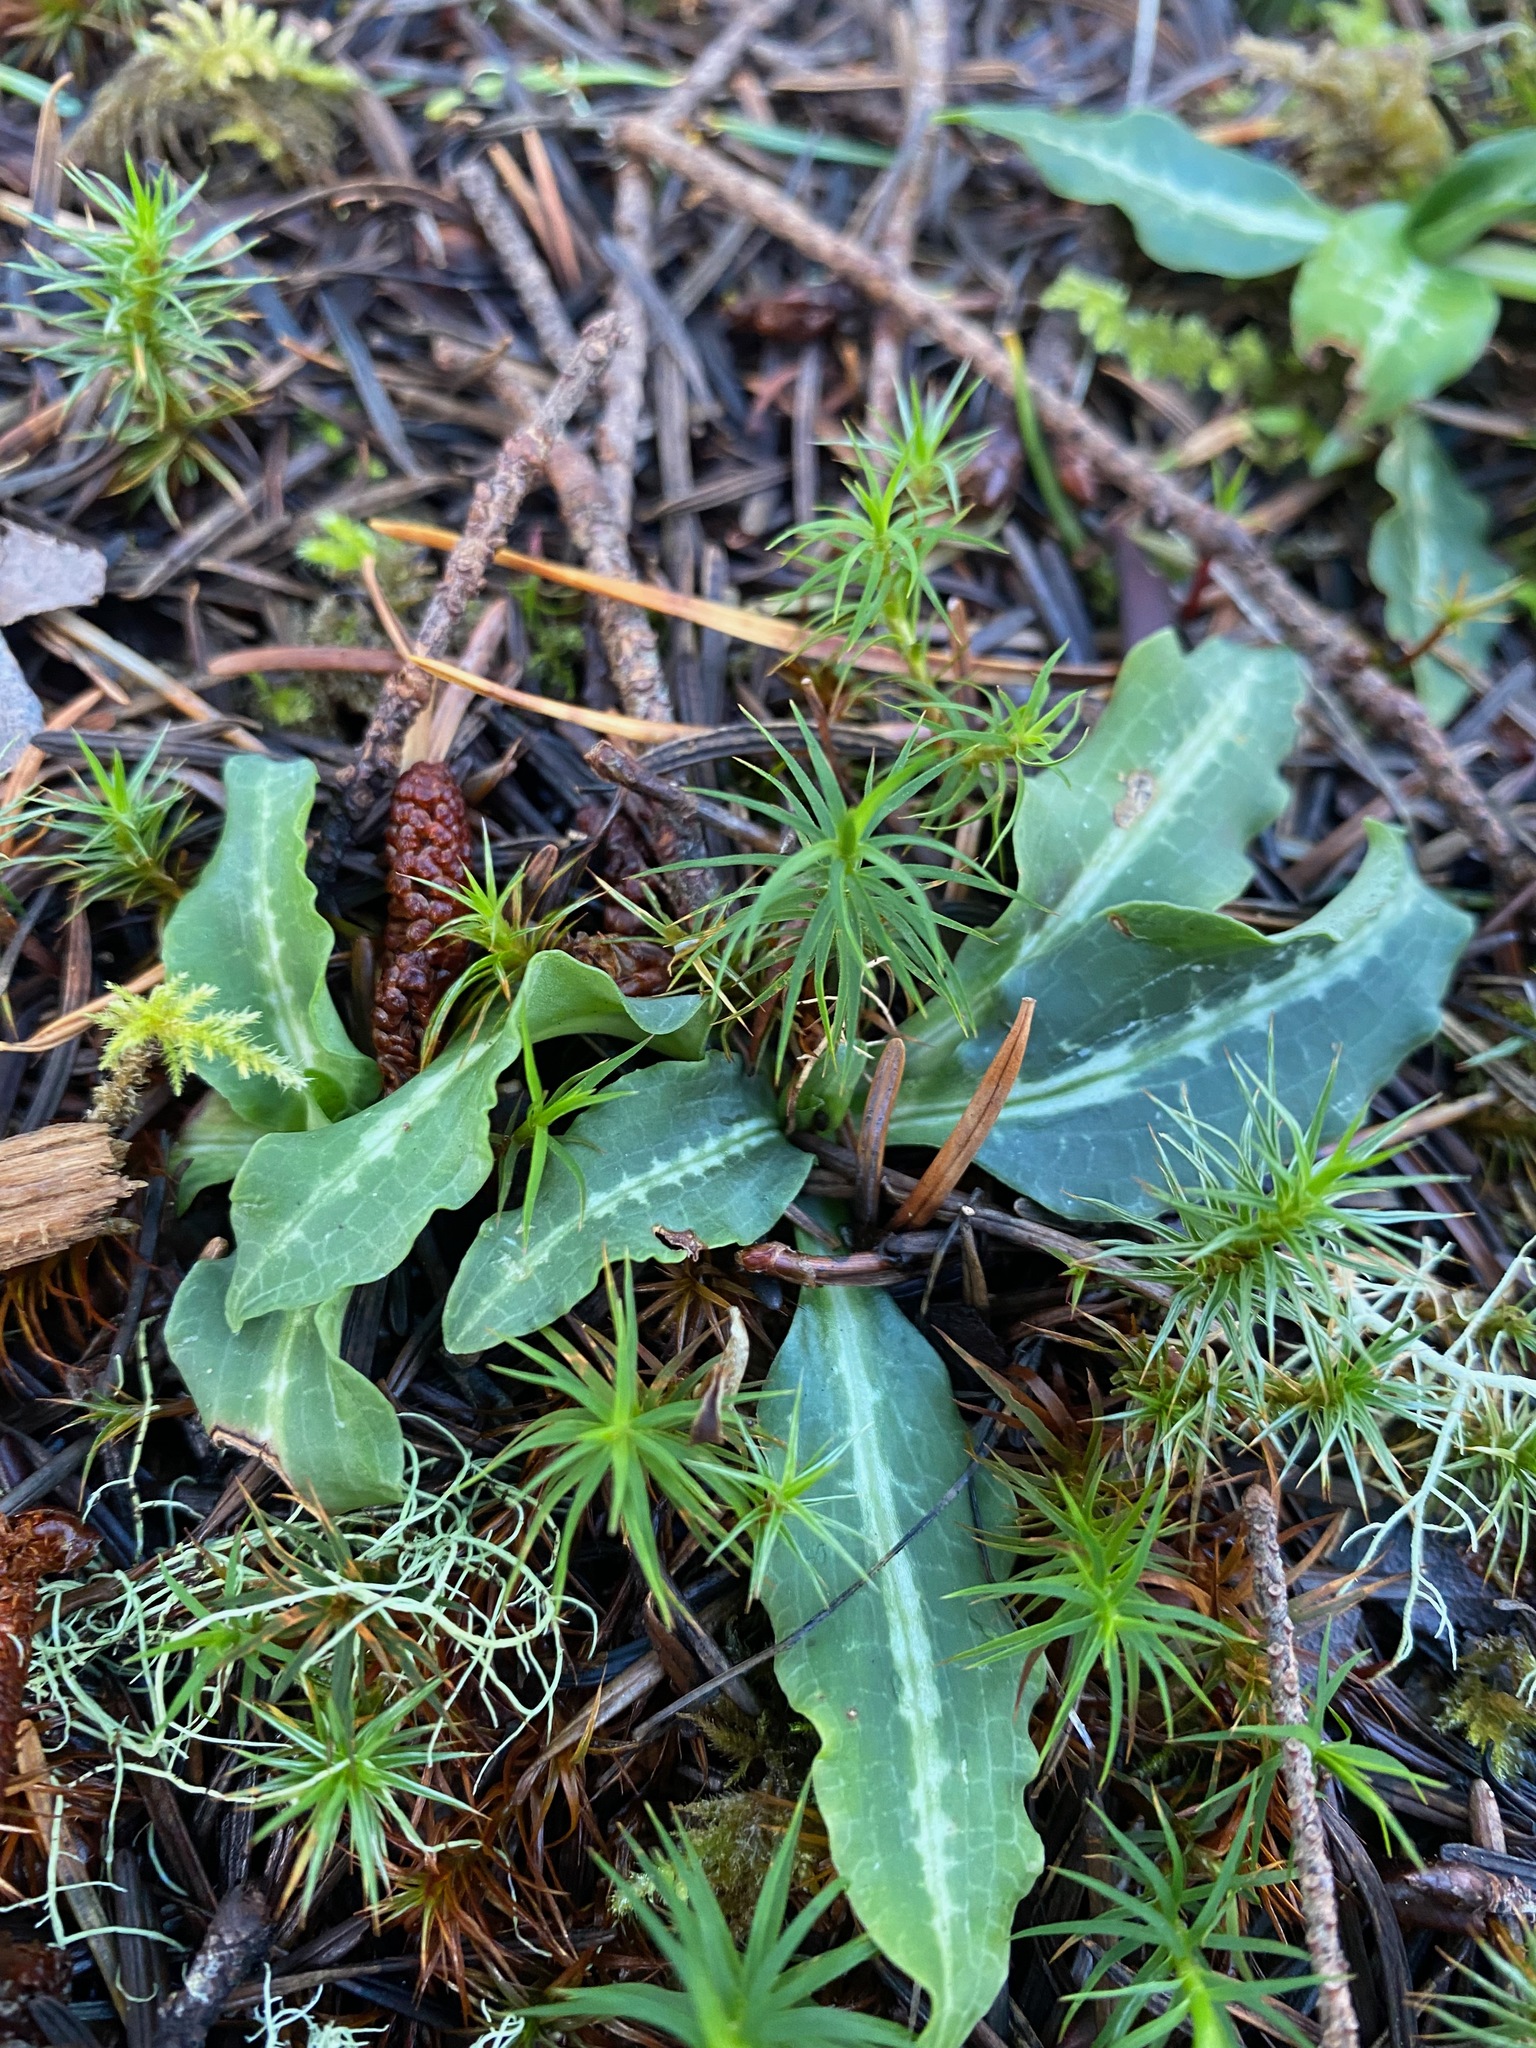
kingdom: Plantae
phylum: Tracheophyta
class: Liliopsida
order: Asparagales
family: Orchidaceae
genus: Goodyera
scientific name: Goodyera oblongifolia
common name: Giant rattlesnake-plantain
